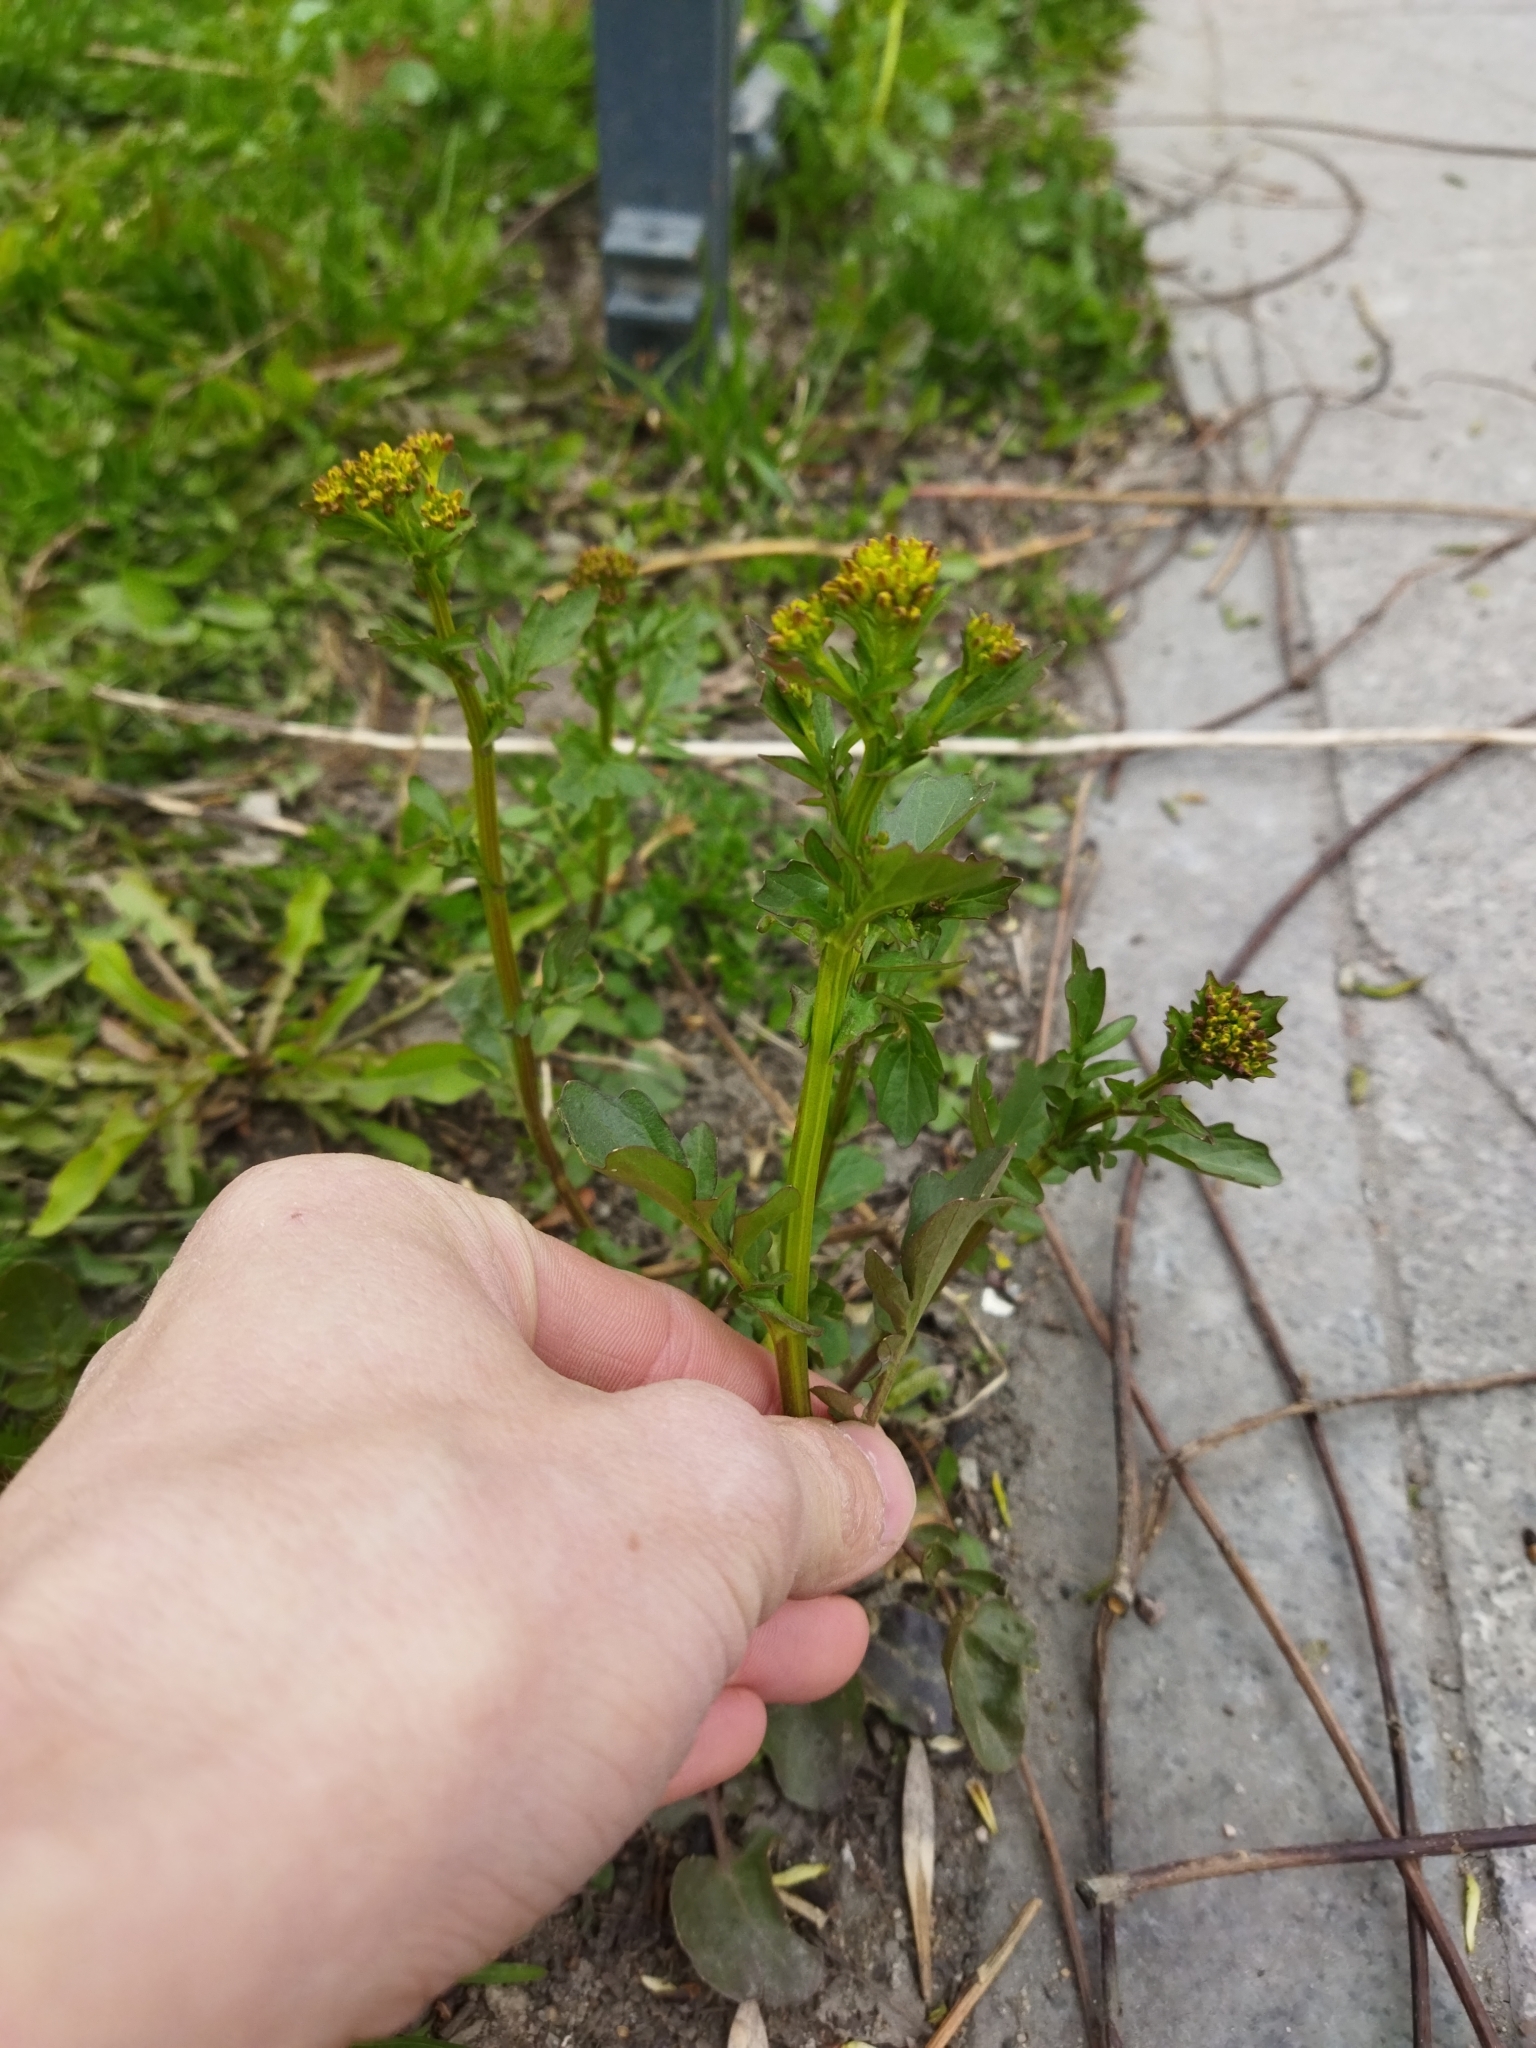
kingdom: Plantae
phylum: Tracheophyta
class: Magnoliopsida
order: Brassicales
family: Brassicaceae
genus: Barbarea
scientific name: Barbarea vulgaris
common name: Cressy-greens
